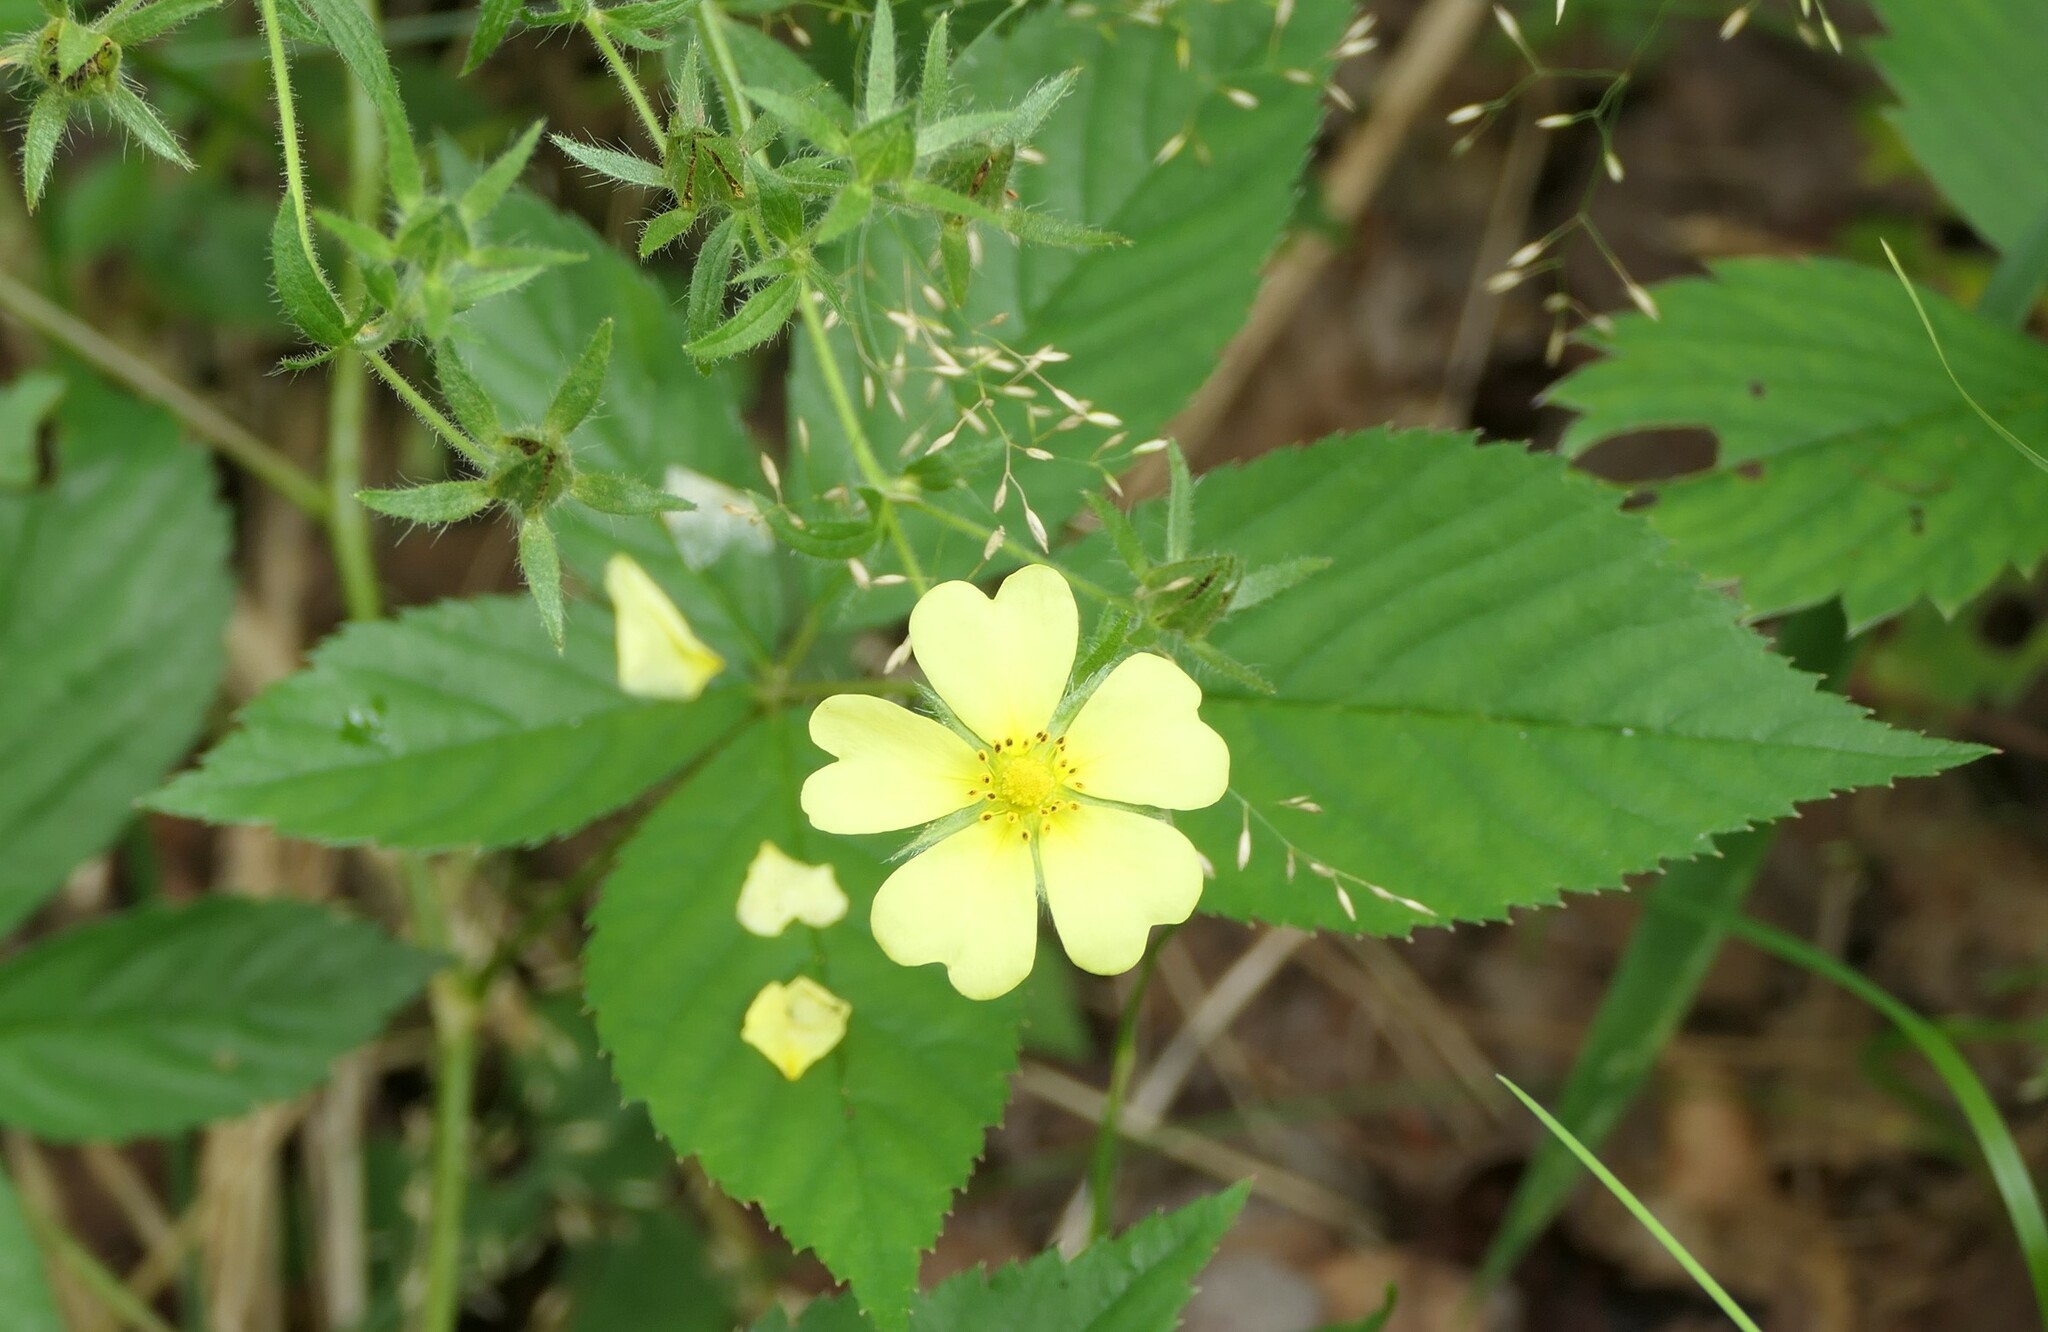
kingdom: Plantae
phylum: Tracheophyta
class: Magnoliopsida
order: Rosales
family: Rosaceae
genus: Potentilla
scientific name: Potentilla recta
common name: Sulphur cinquefoil
